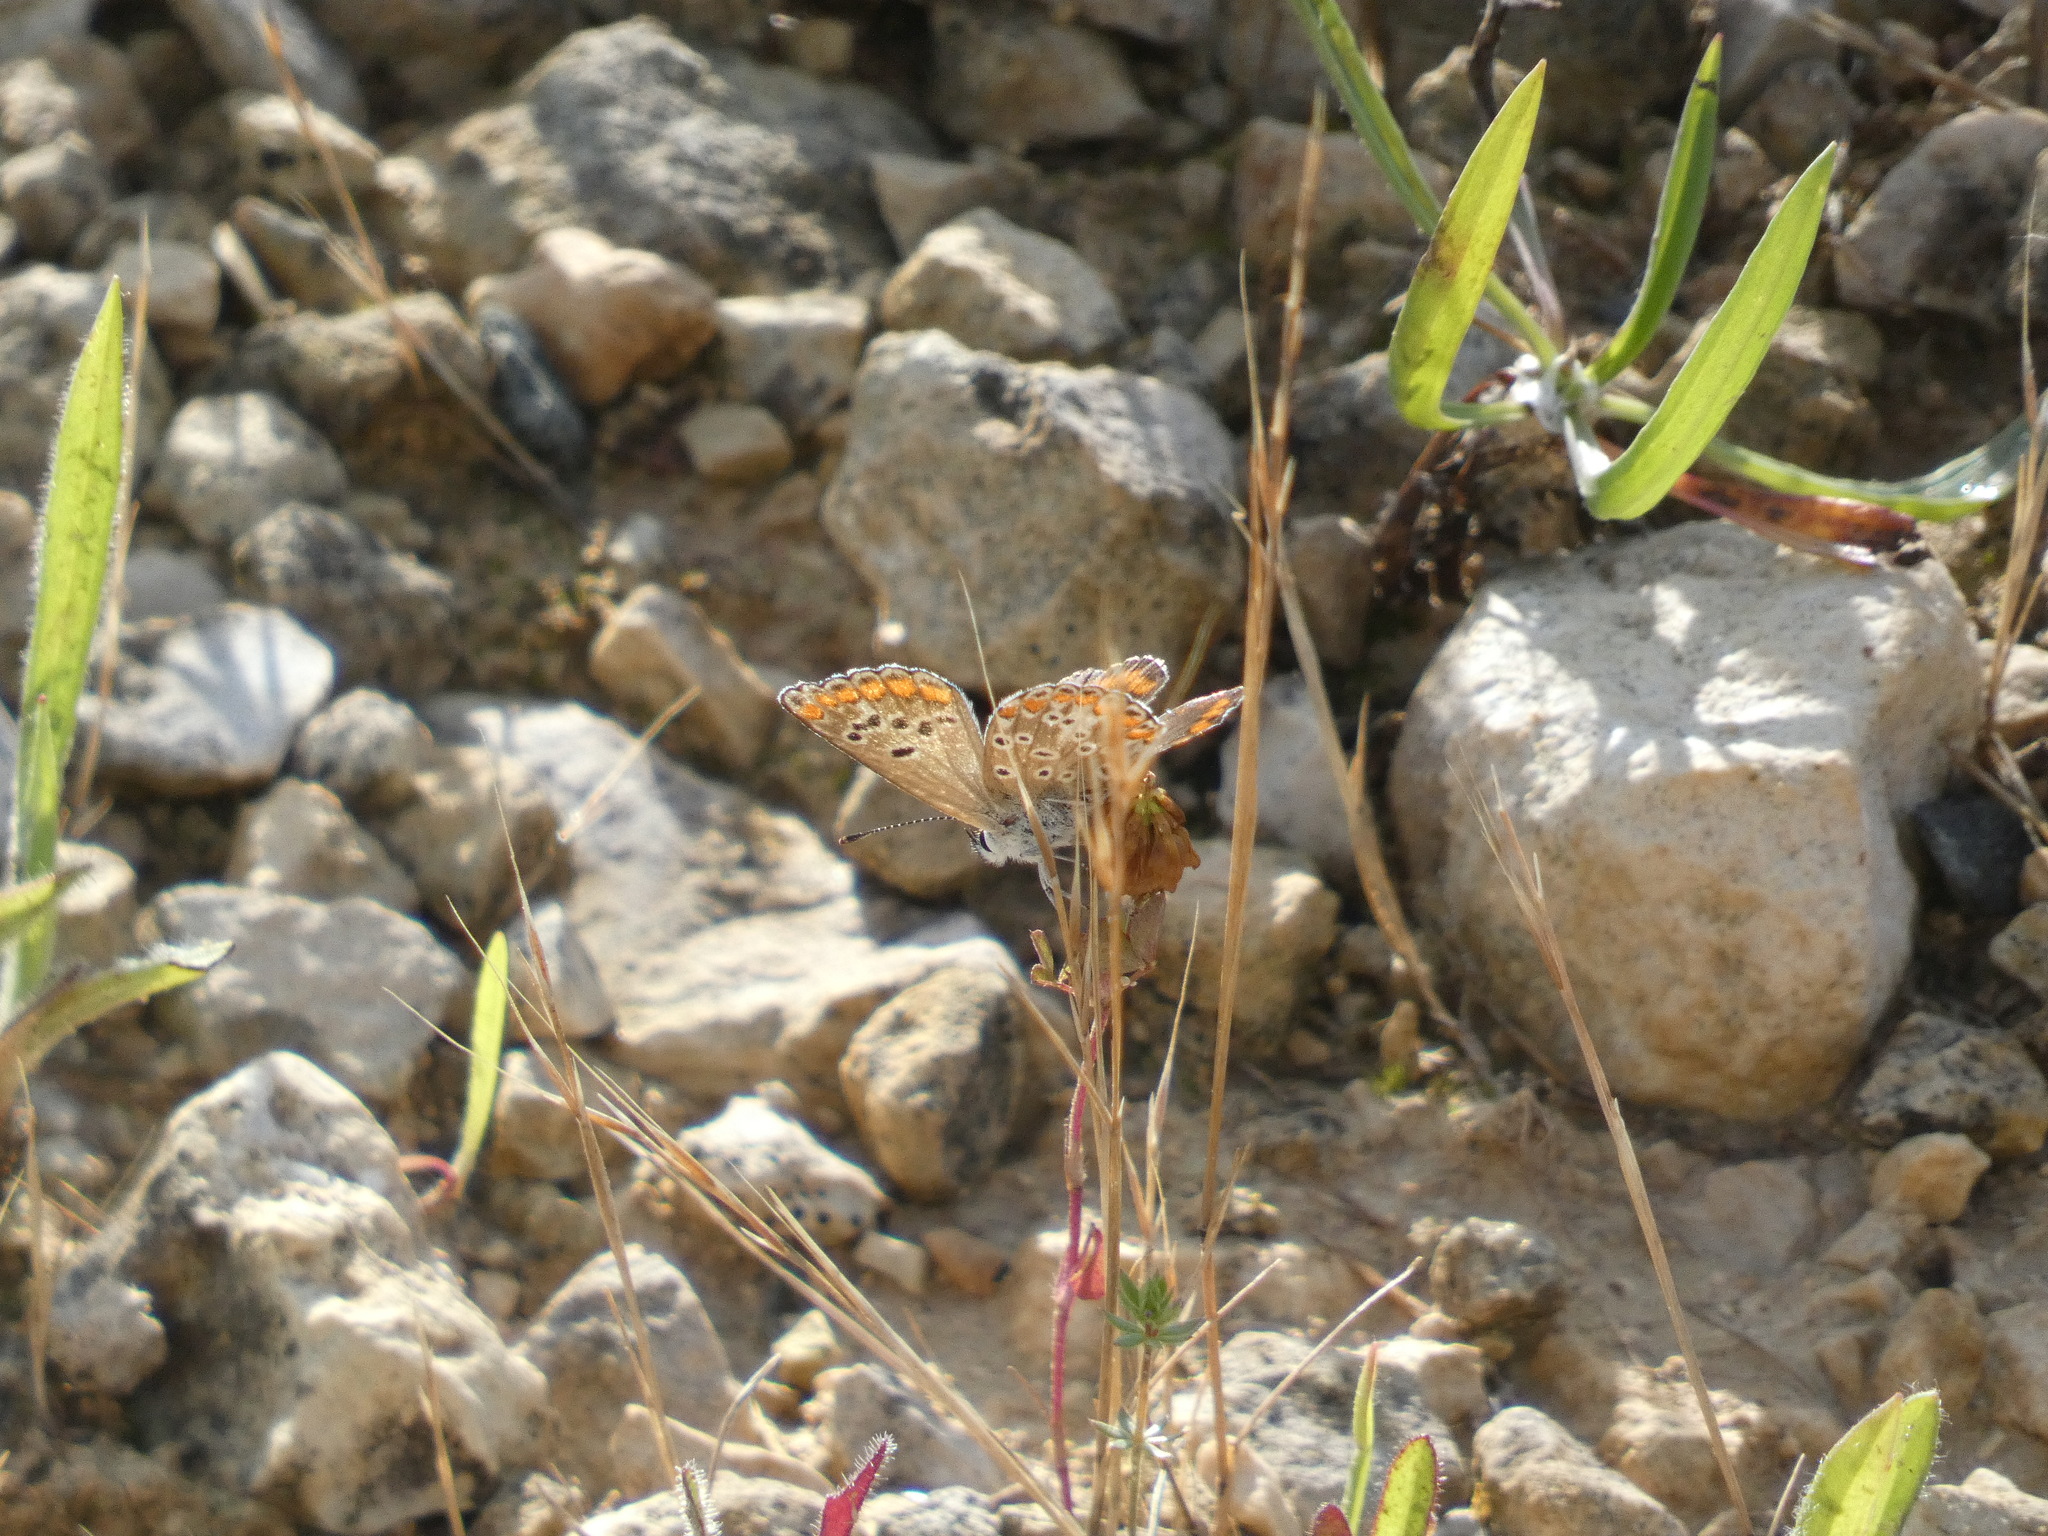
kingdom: Animalia
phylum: Arthropoda
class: Insecta
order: Lepidoptera
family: Lycaenidae
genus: Aricia
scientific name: Aricia agestis
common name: Brown argus
